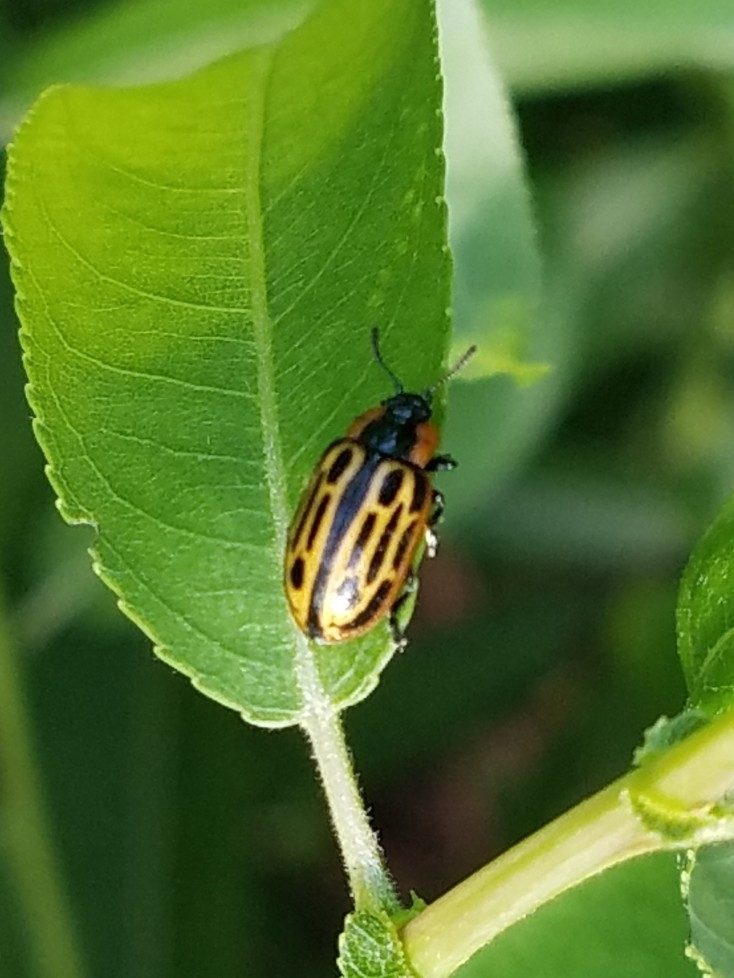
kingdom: Animalia
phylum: Arthropoda
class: Insecta
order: Coleoptera
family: Chrysomelidae
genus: Aethiopocassis
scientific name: Aethiopocassis scripta
